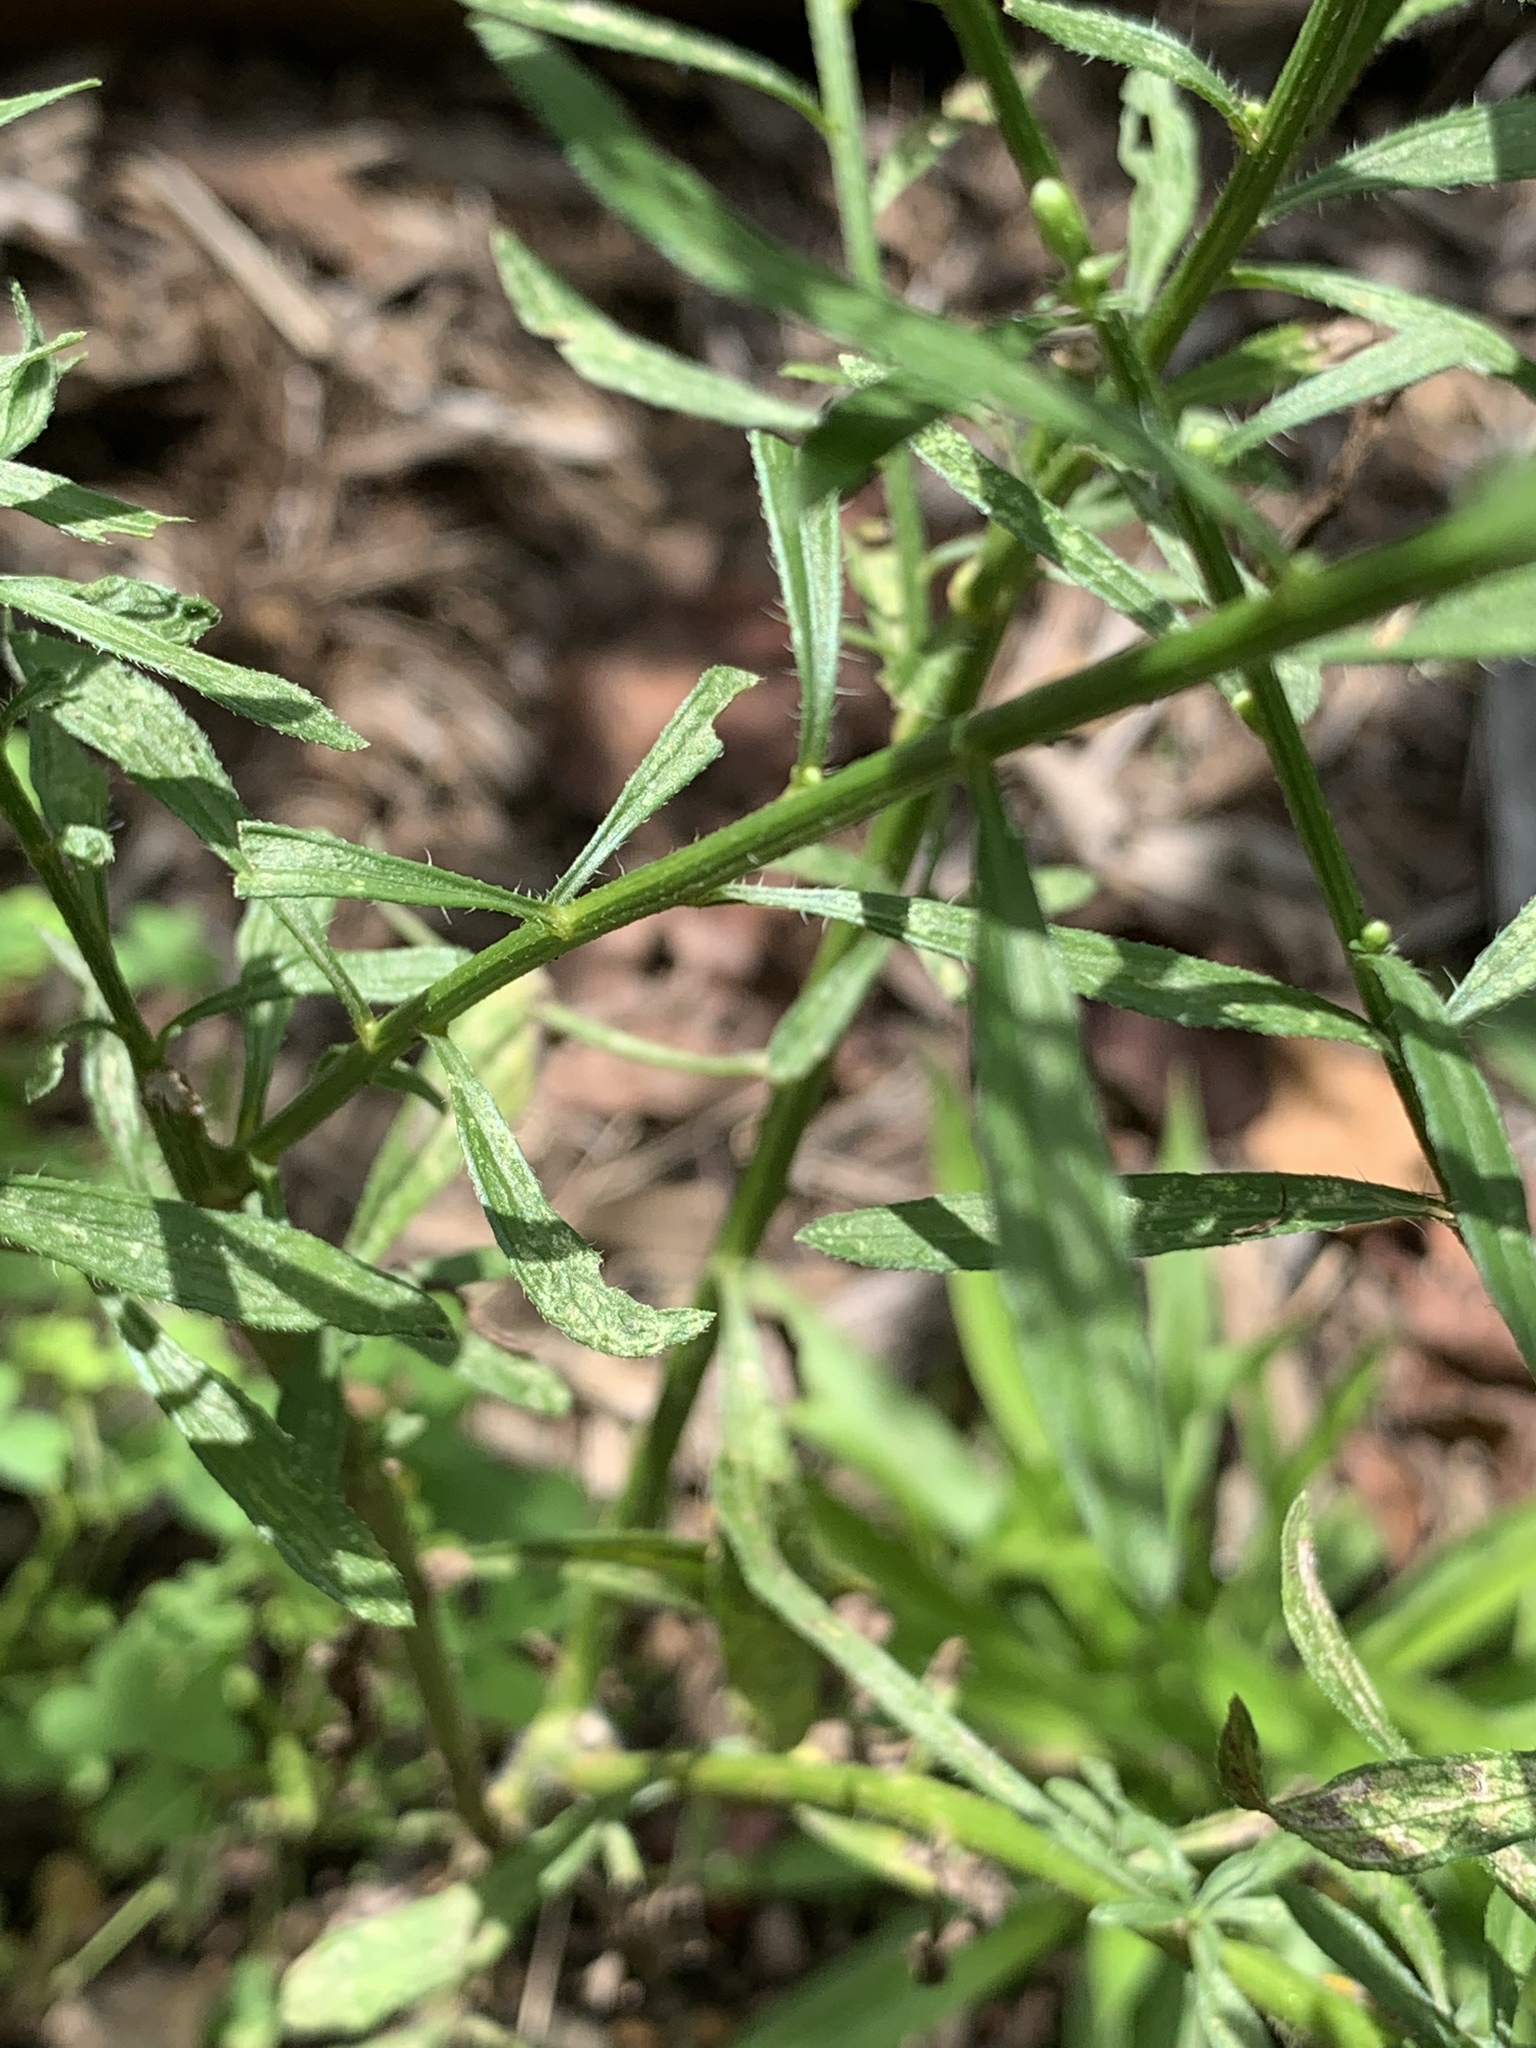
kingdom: Plantae
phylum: Tracheophyta
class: Magnoliopsida
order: Asterales
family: Asteraceae
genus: Erigeron
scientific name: Erigeron canadensis
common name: Canadian fleabane
